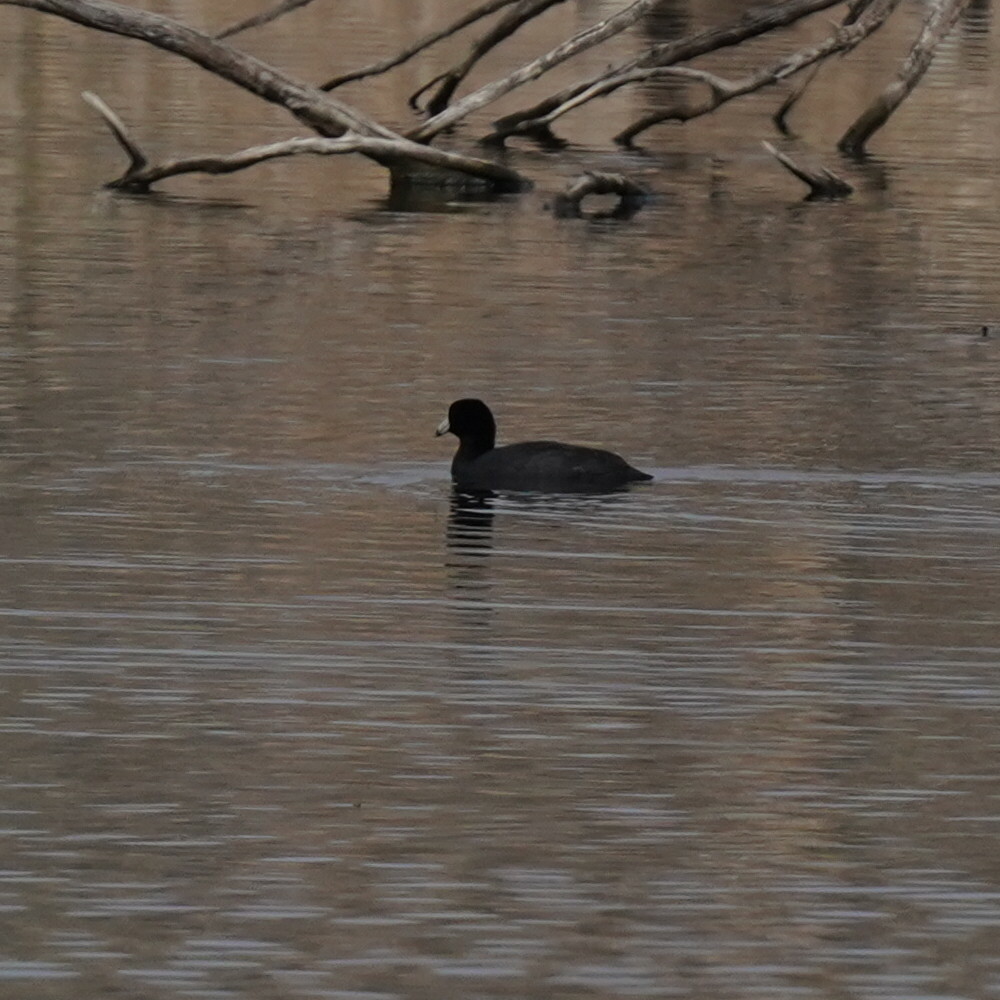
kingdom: Animalia
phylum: Chordata
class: Aves
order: Gruiformes
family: Rallidae
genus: Fulica
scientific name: Fulica americana
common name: American coot
